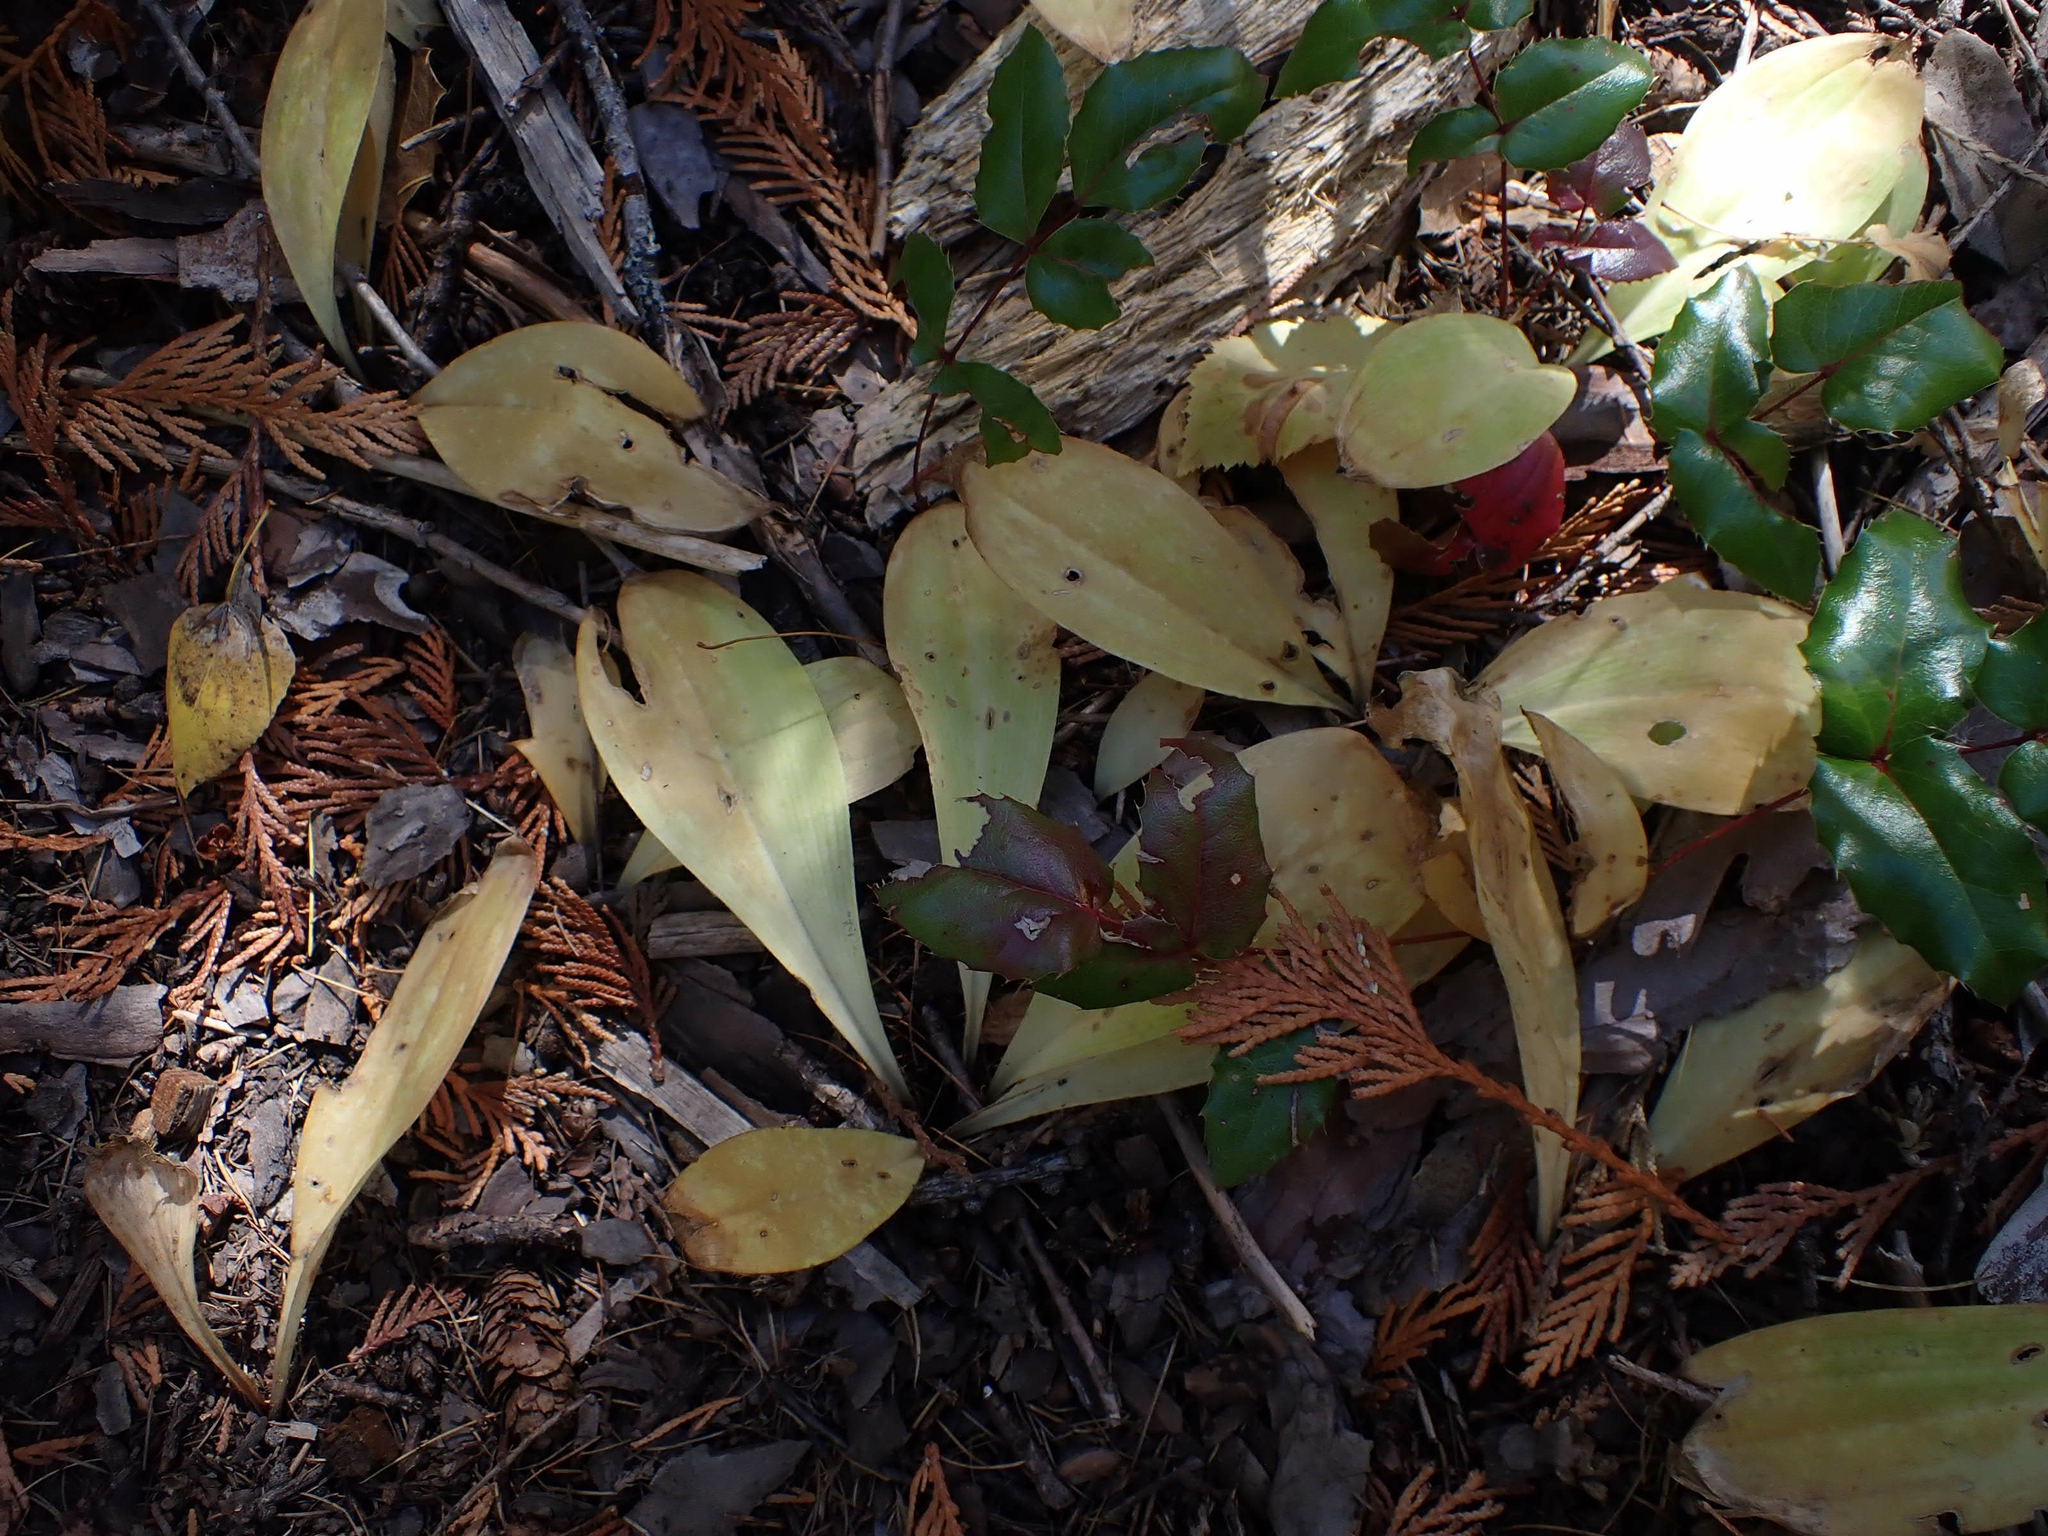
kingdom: Plantae
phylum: Tracheophyta
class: Liliopsida
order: Liliales
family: Liliaceae
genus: Clintonia
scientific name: Clintonia uniflora
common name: Queen's cup
